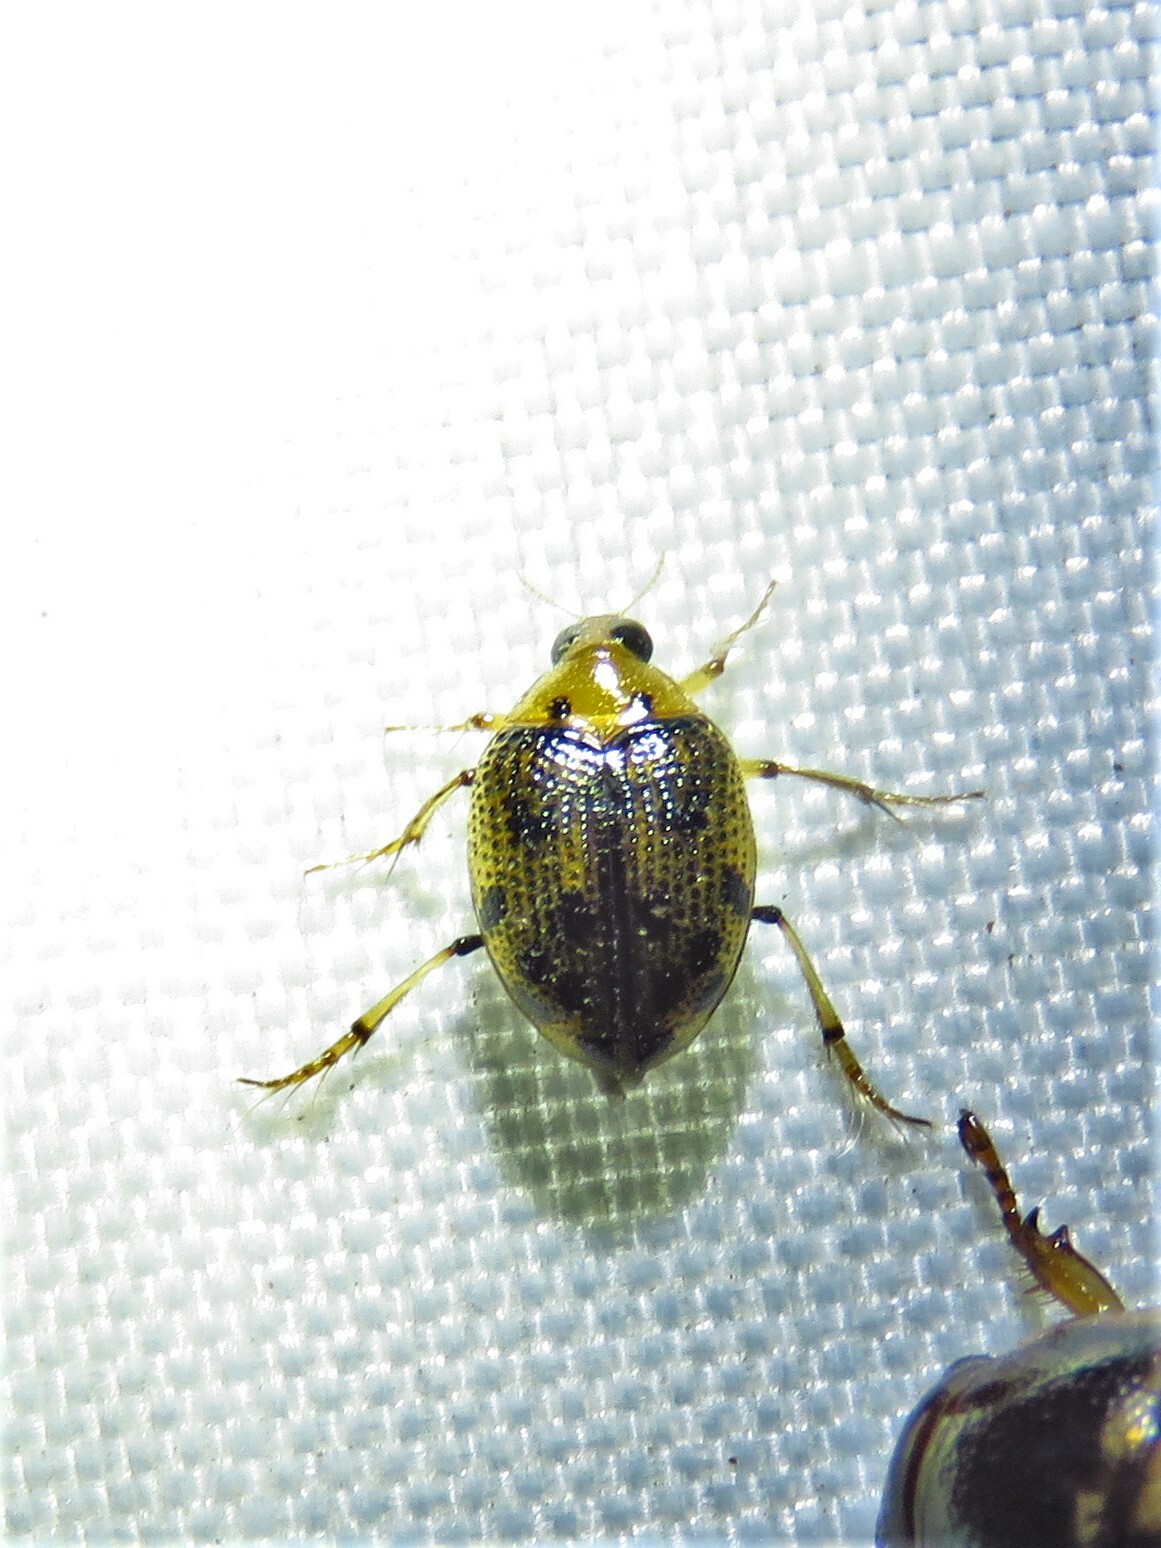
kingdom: Animalia
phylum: Arthropoda
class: Insecta
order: Coleoptera
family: Haliplidae
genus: Peltodytes
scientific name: Peltodytes
